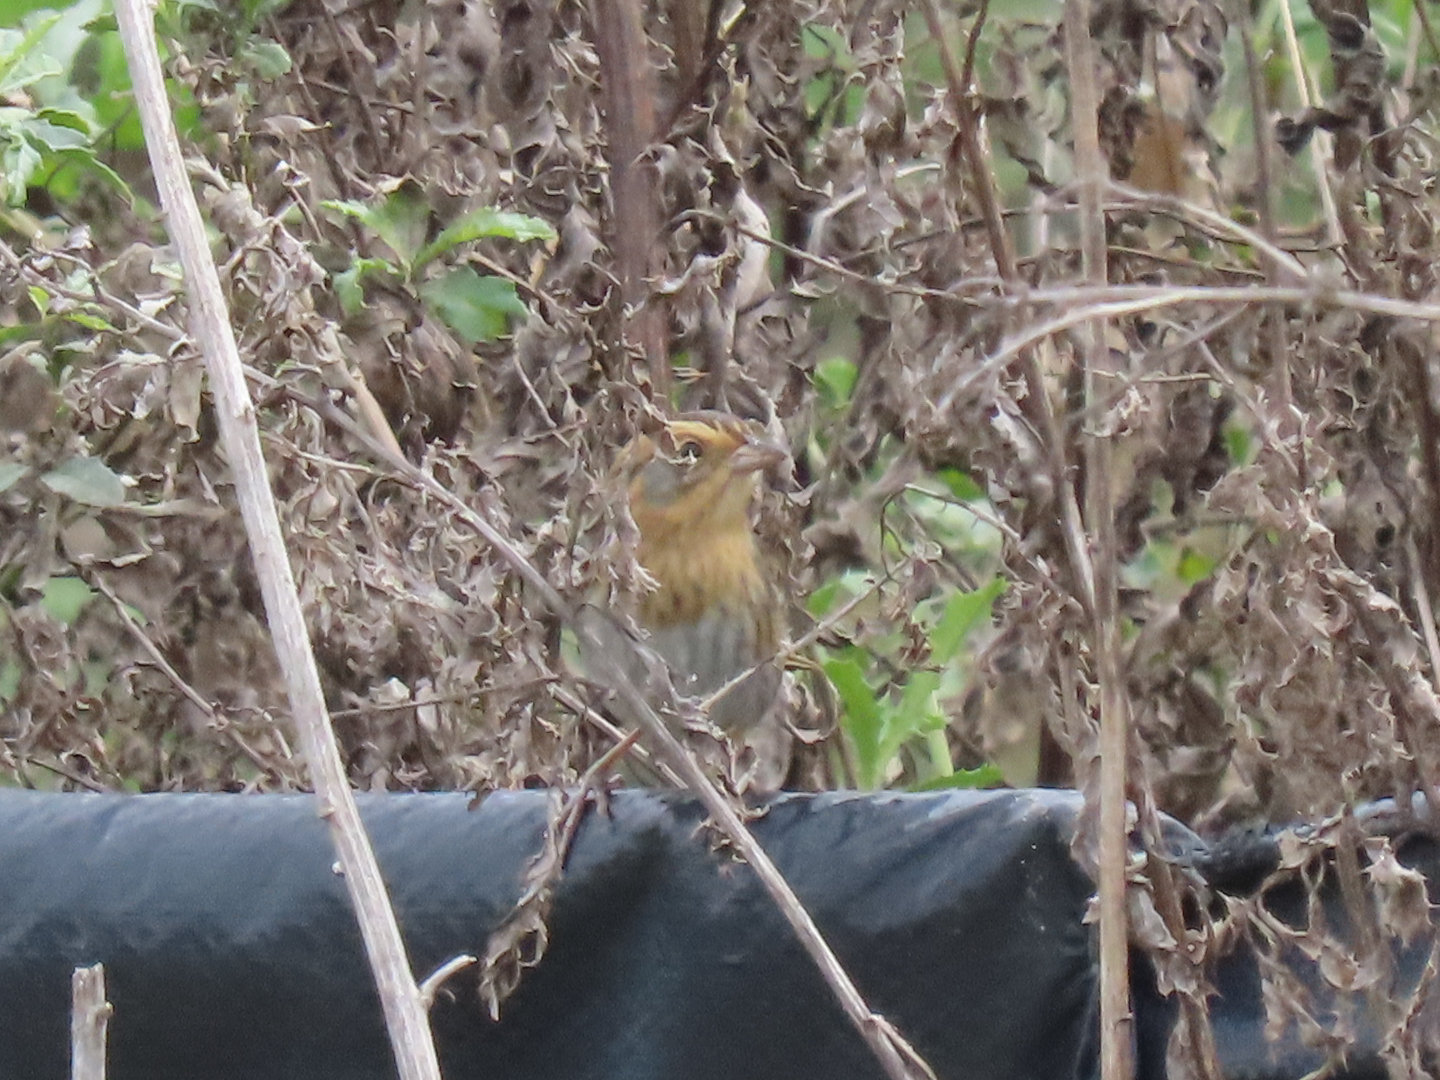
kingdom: Animalia
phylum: Chordata
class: Aves
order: Passeriformes
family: Passerellidae
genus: Ammospiza
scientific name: Ammospiza nelsoni
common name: Nelson's sparrow
